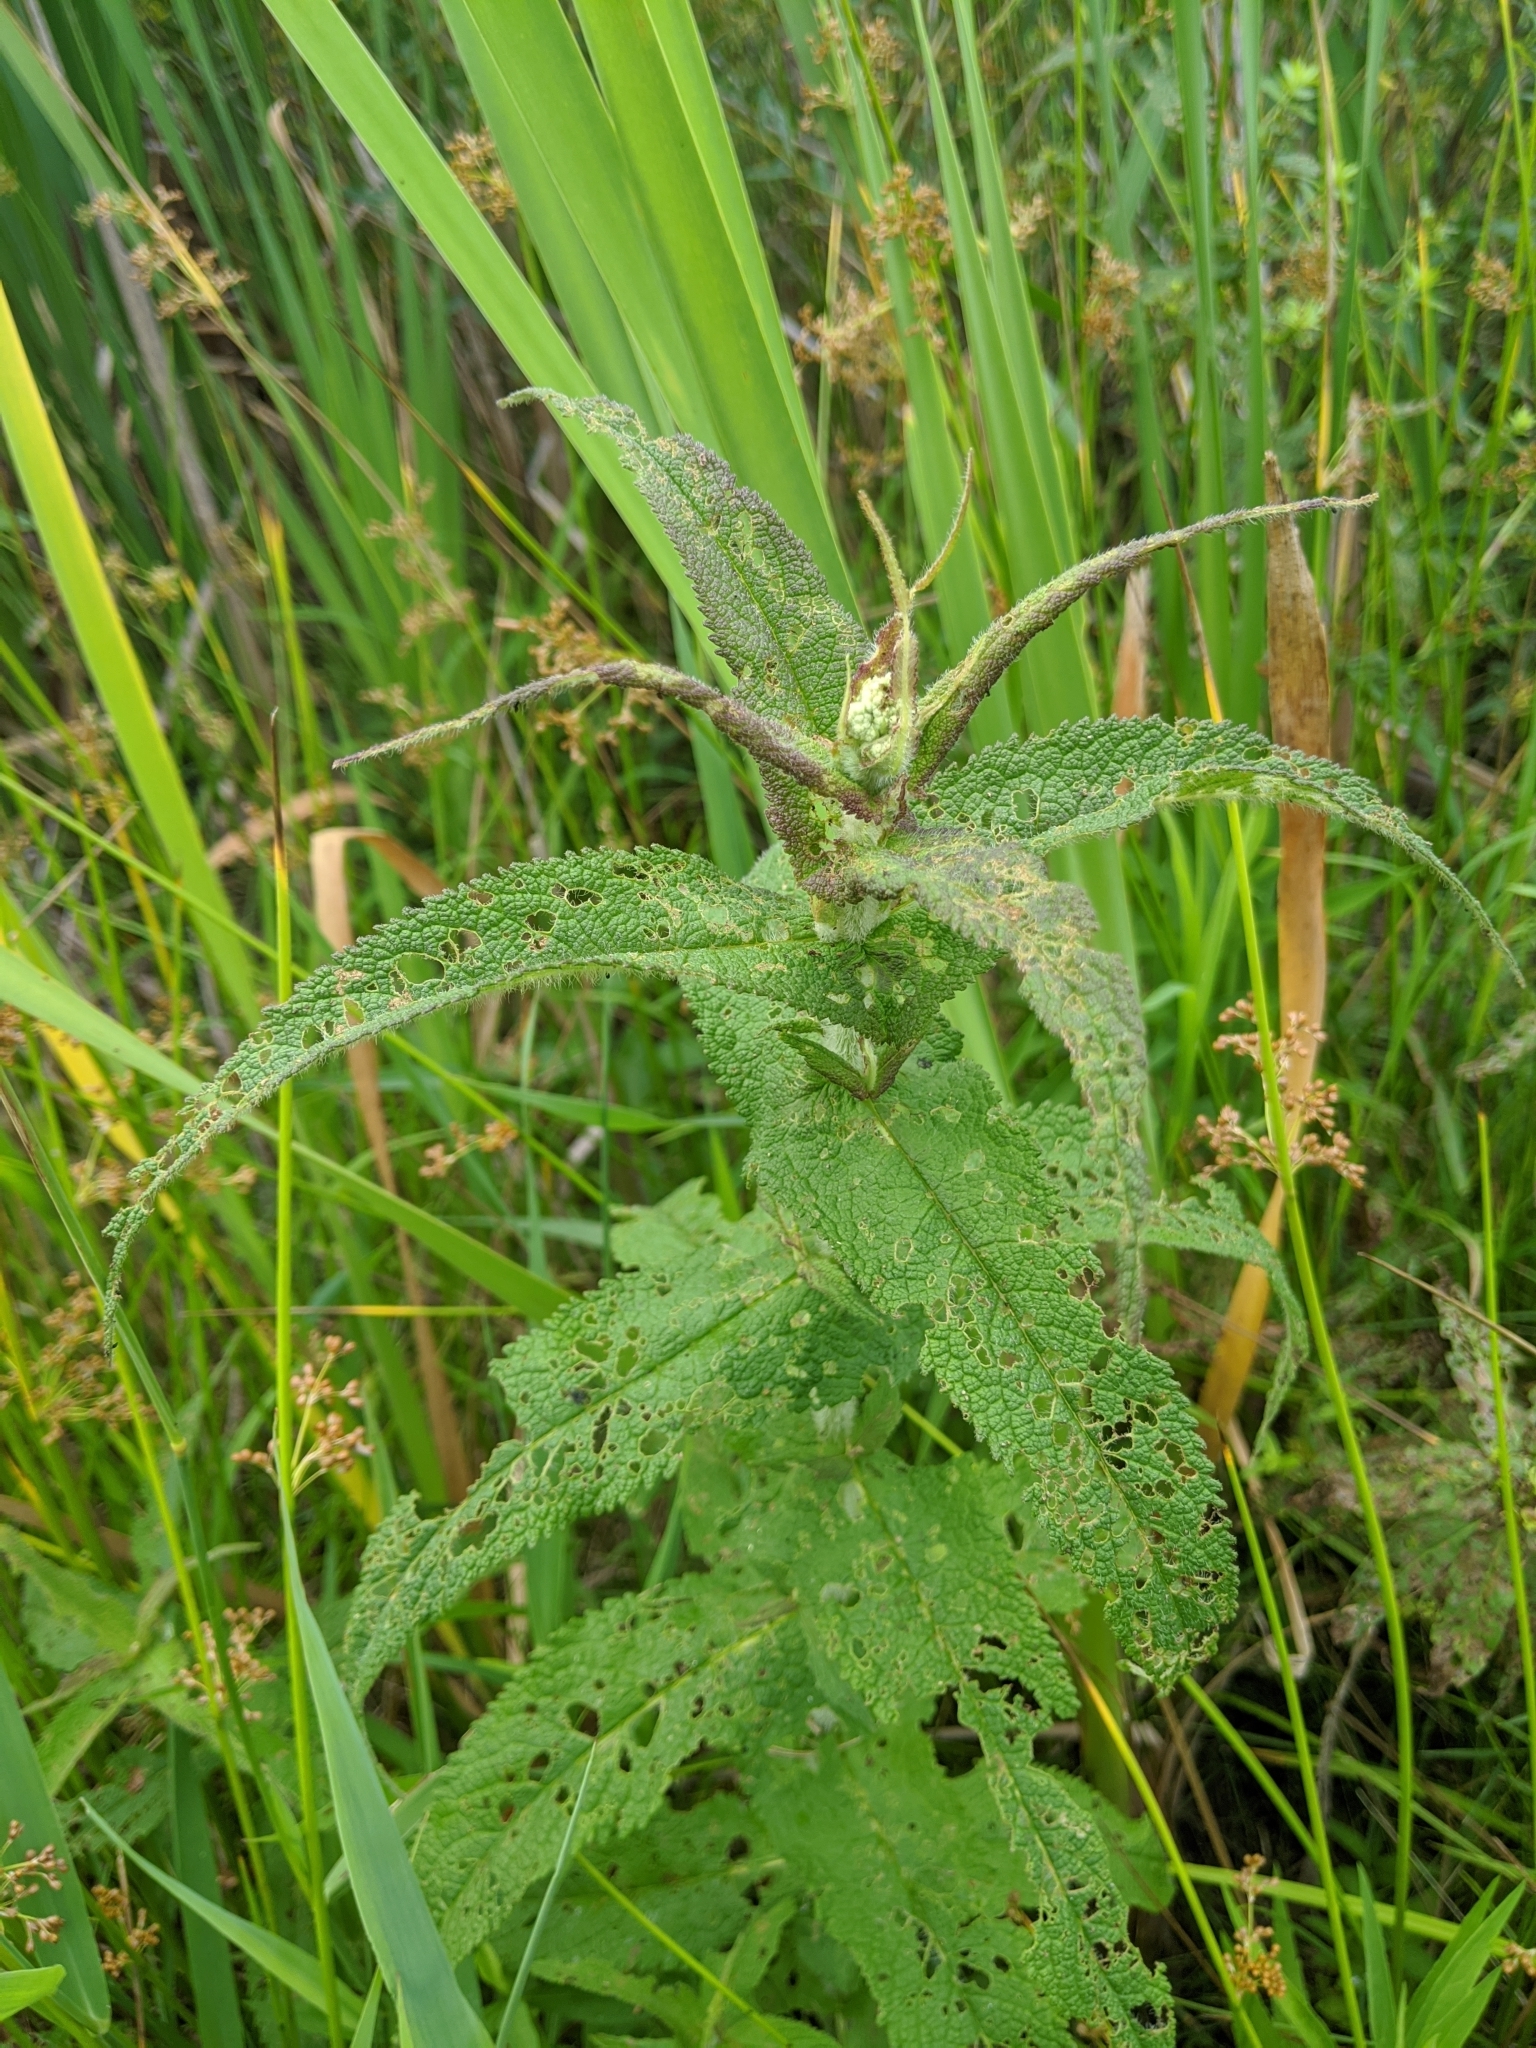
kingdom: Plantae
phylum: Tracheophyta
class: Magnoliopsida
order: Asterales
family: Asteraceae
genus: Eupatorium
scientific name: Eupatorium perfoliatum
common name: Boneset
